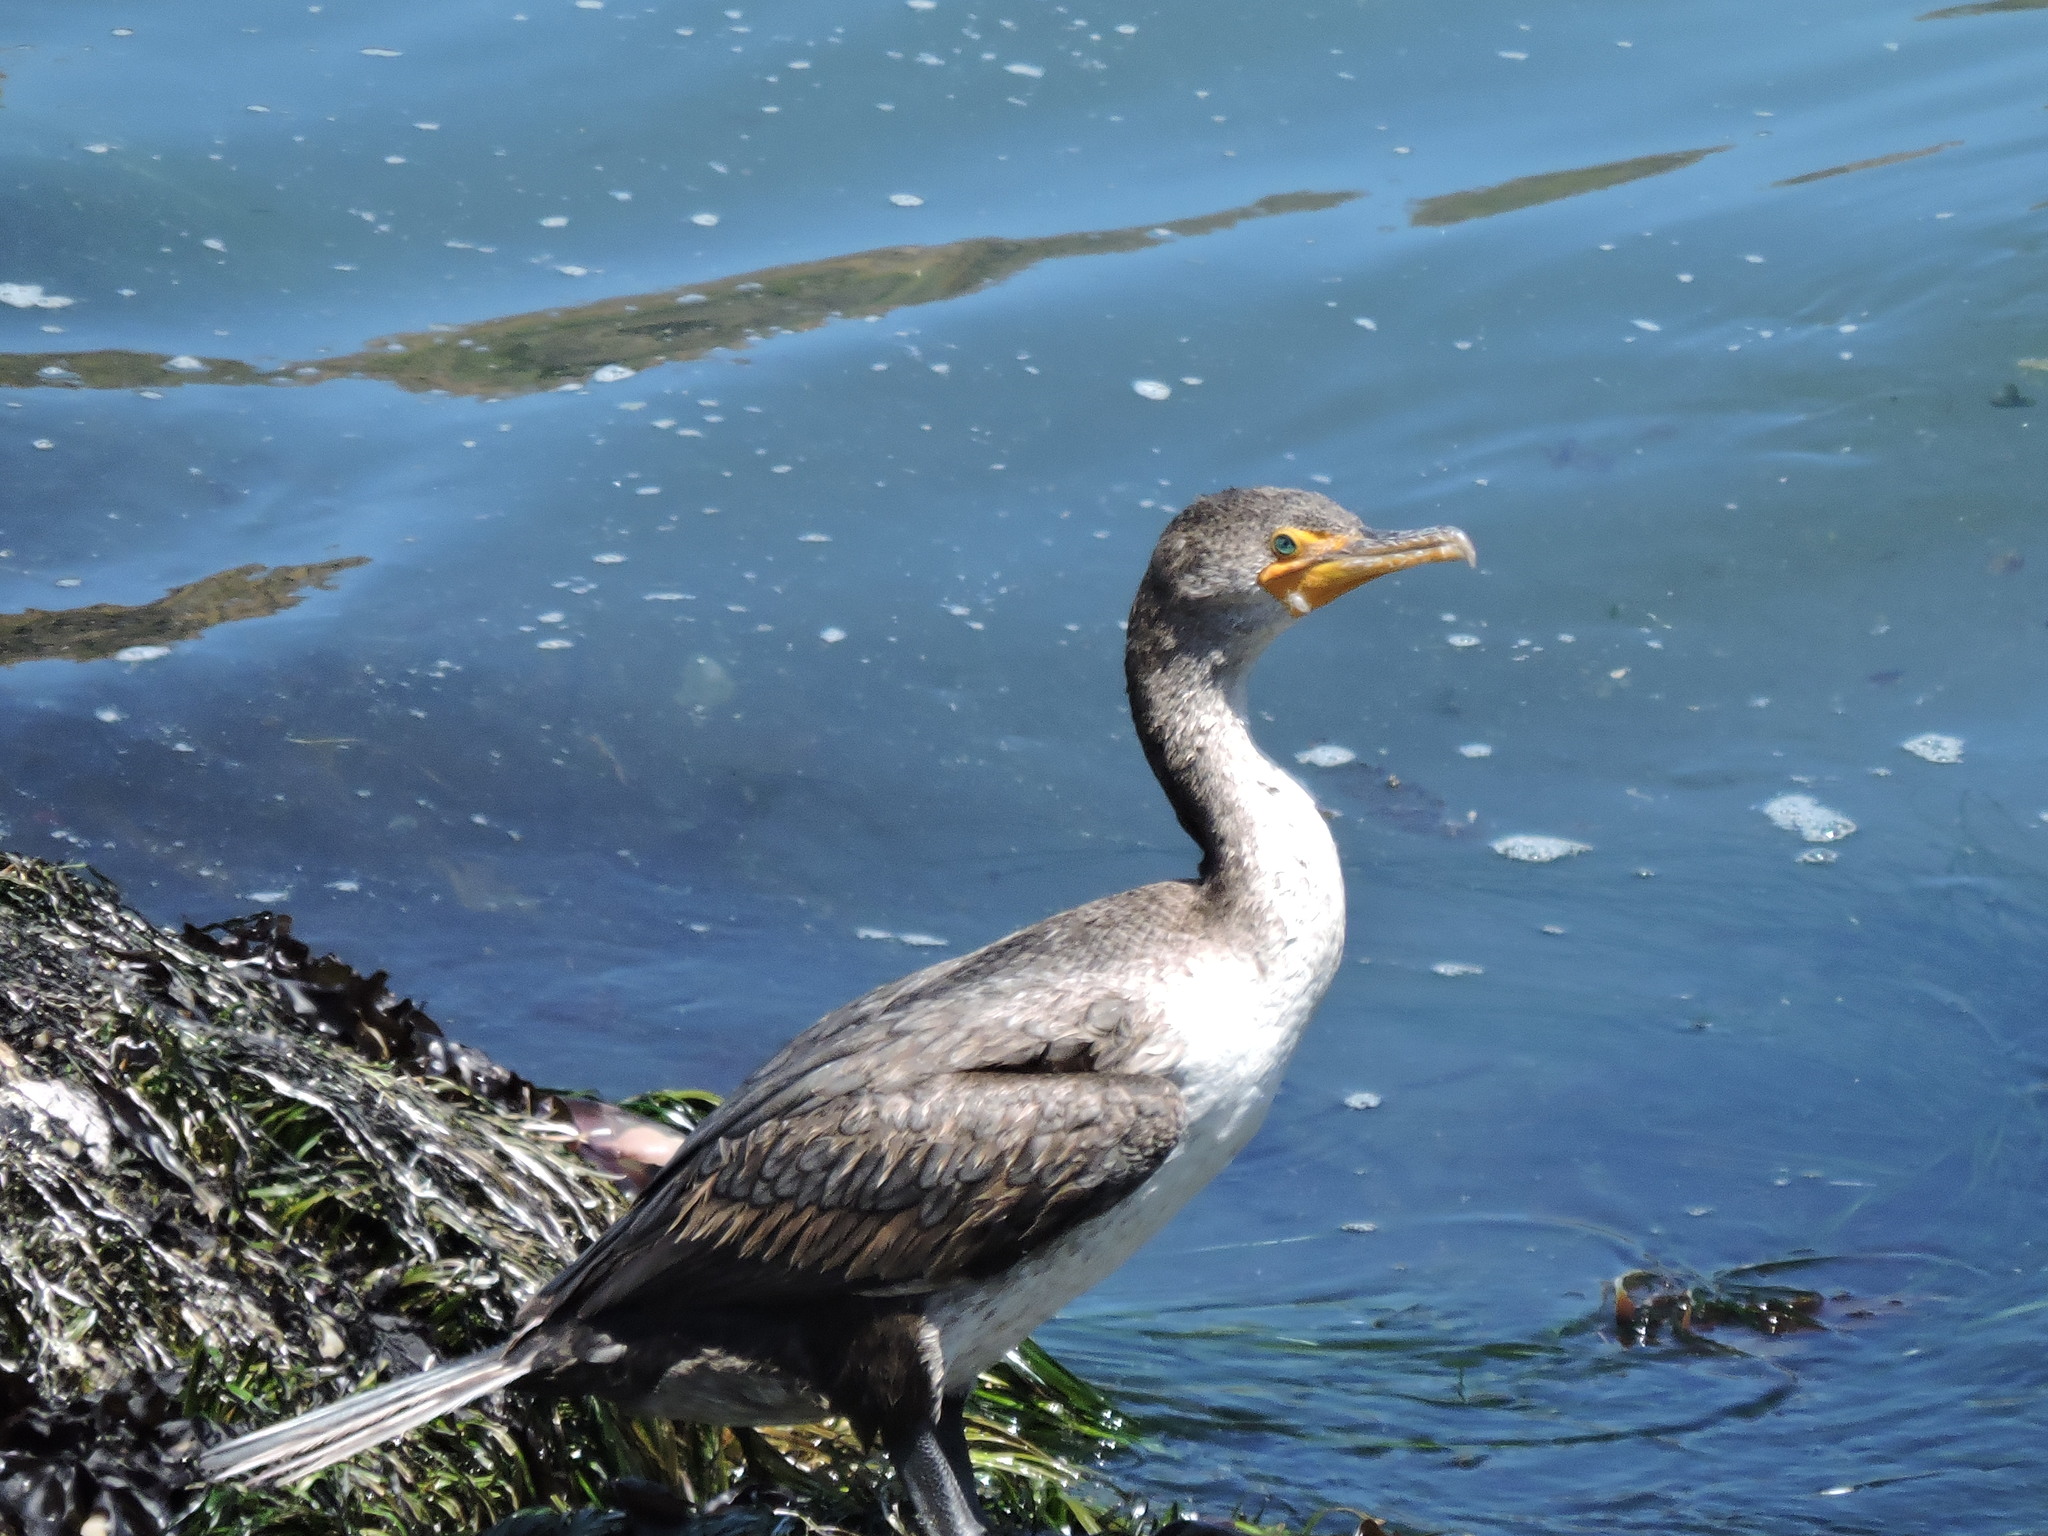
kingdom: Animalia
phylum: Chordata
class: Aves
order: Suliformes
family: Phalacrocoracidae
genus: Phalacrocorax
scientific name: Phalacrocorax auritus
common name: Double-crested cormorant
